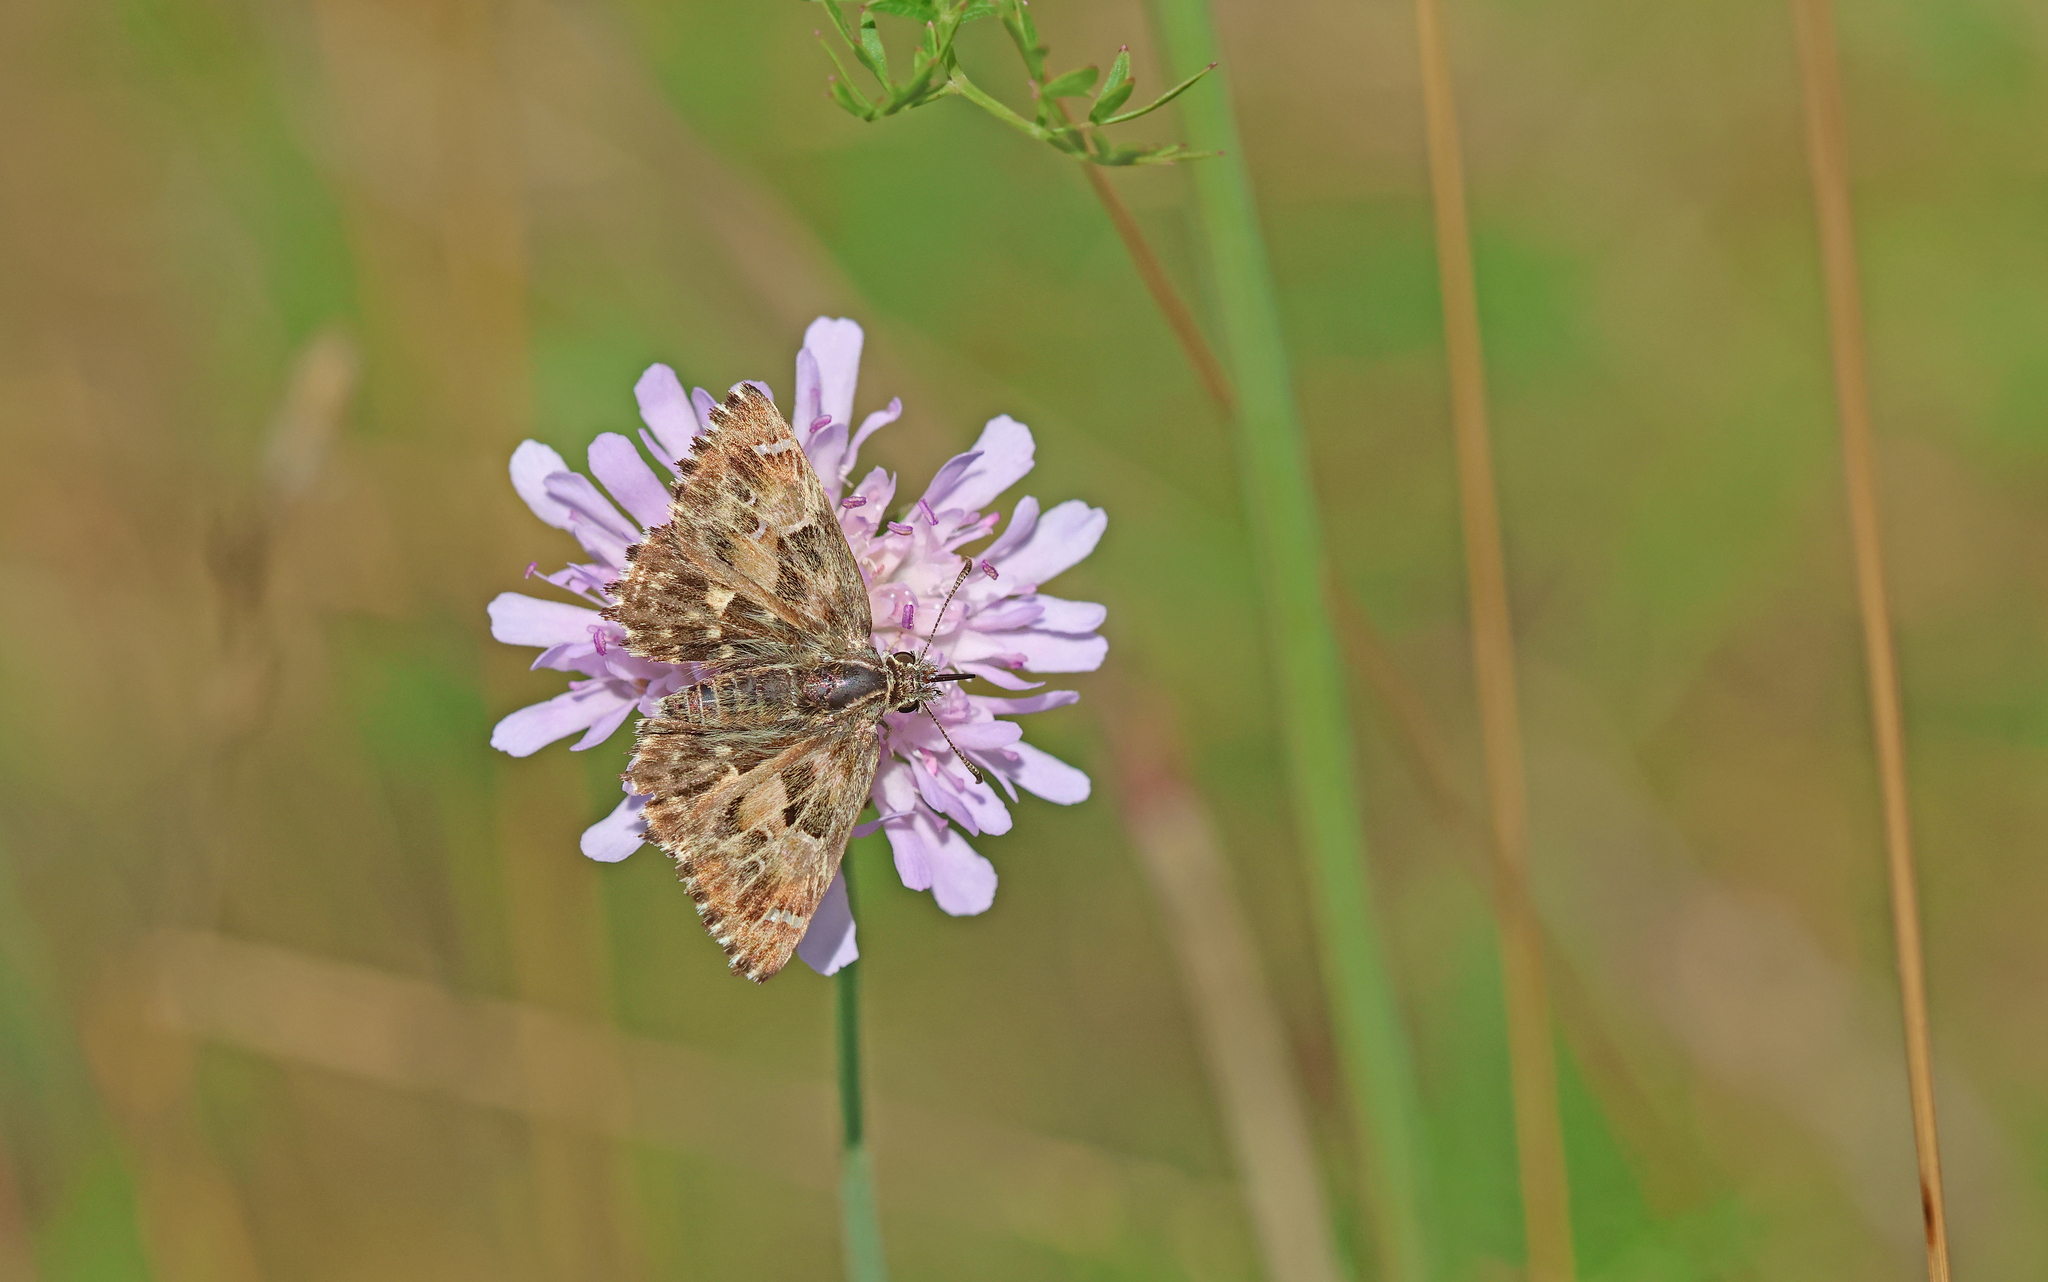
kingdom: Animalia
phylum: Arthropoda
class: Insecta
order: Lepidoptera
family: Hesperiidae
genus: Carcharodus
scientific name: Carcharodus alceae
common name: Mallow skipper
